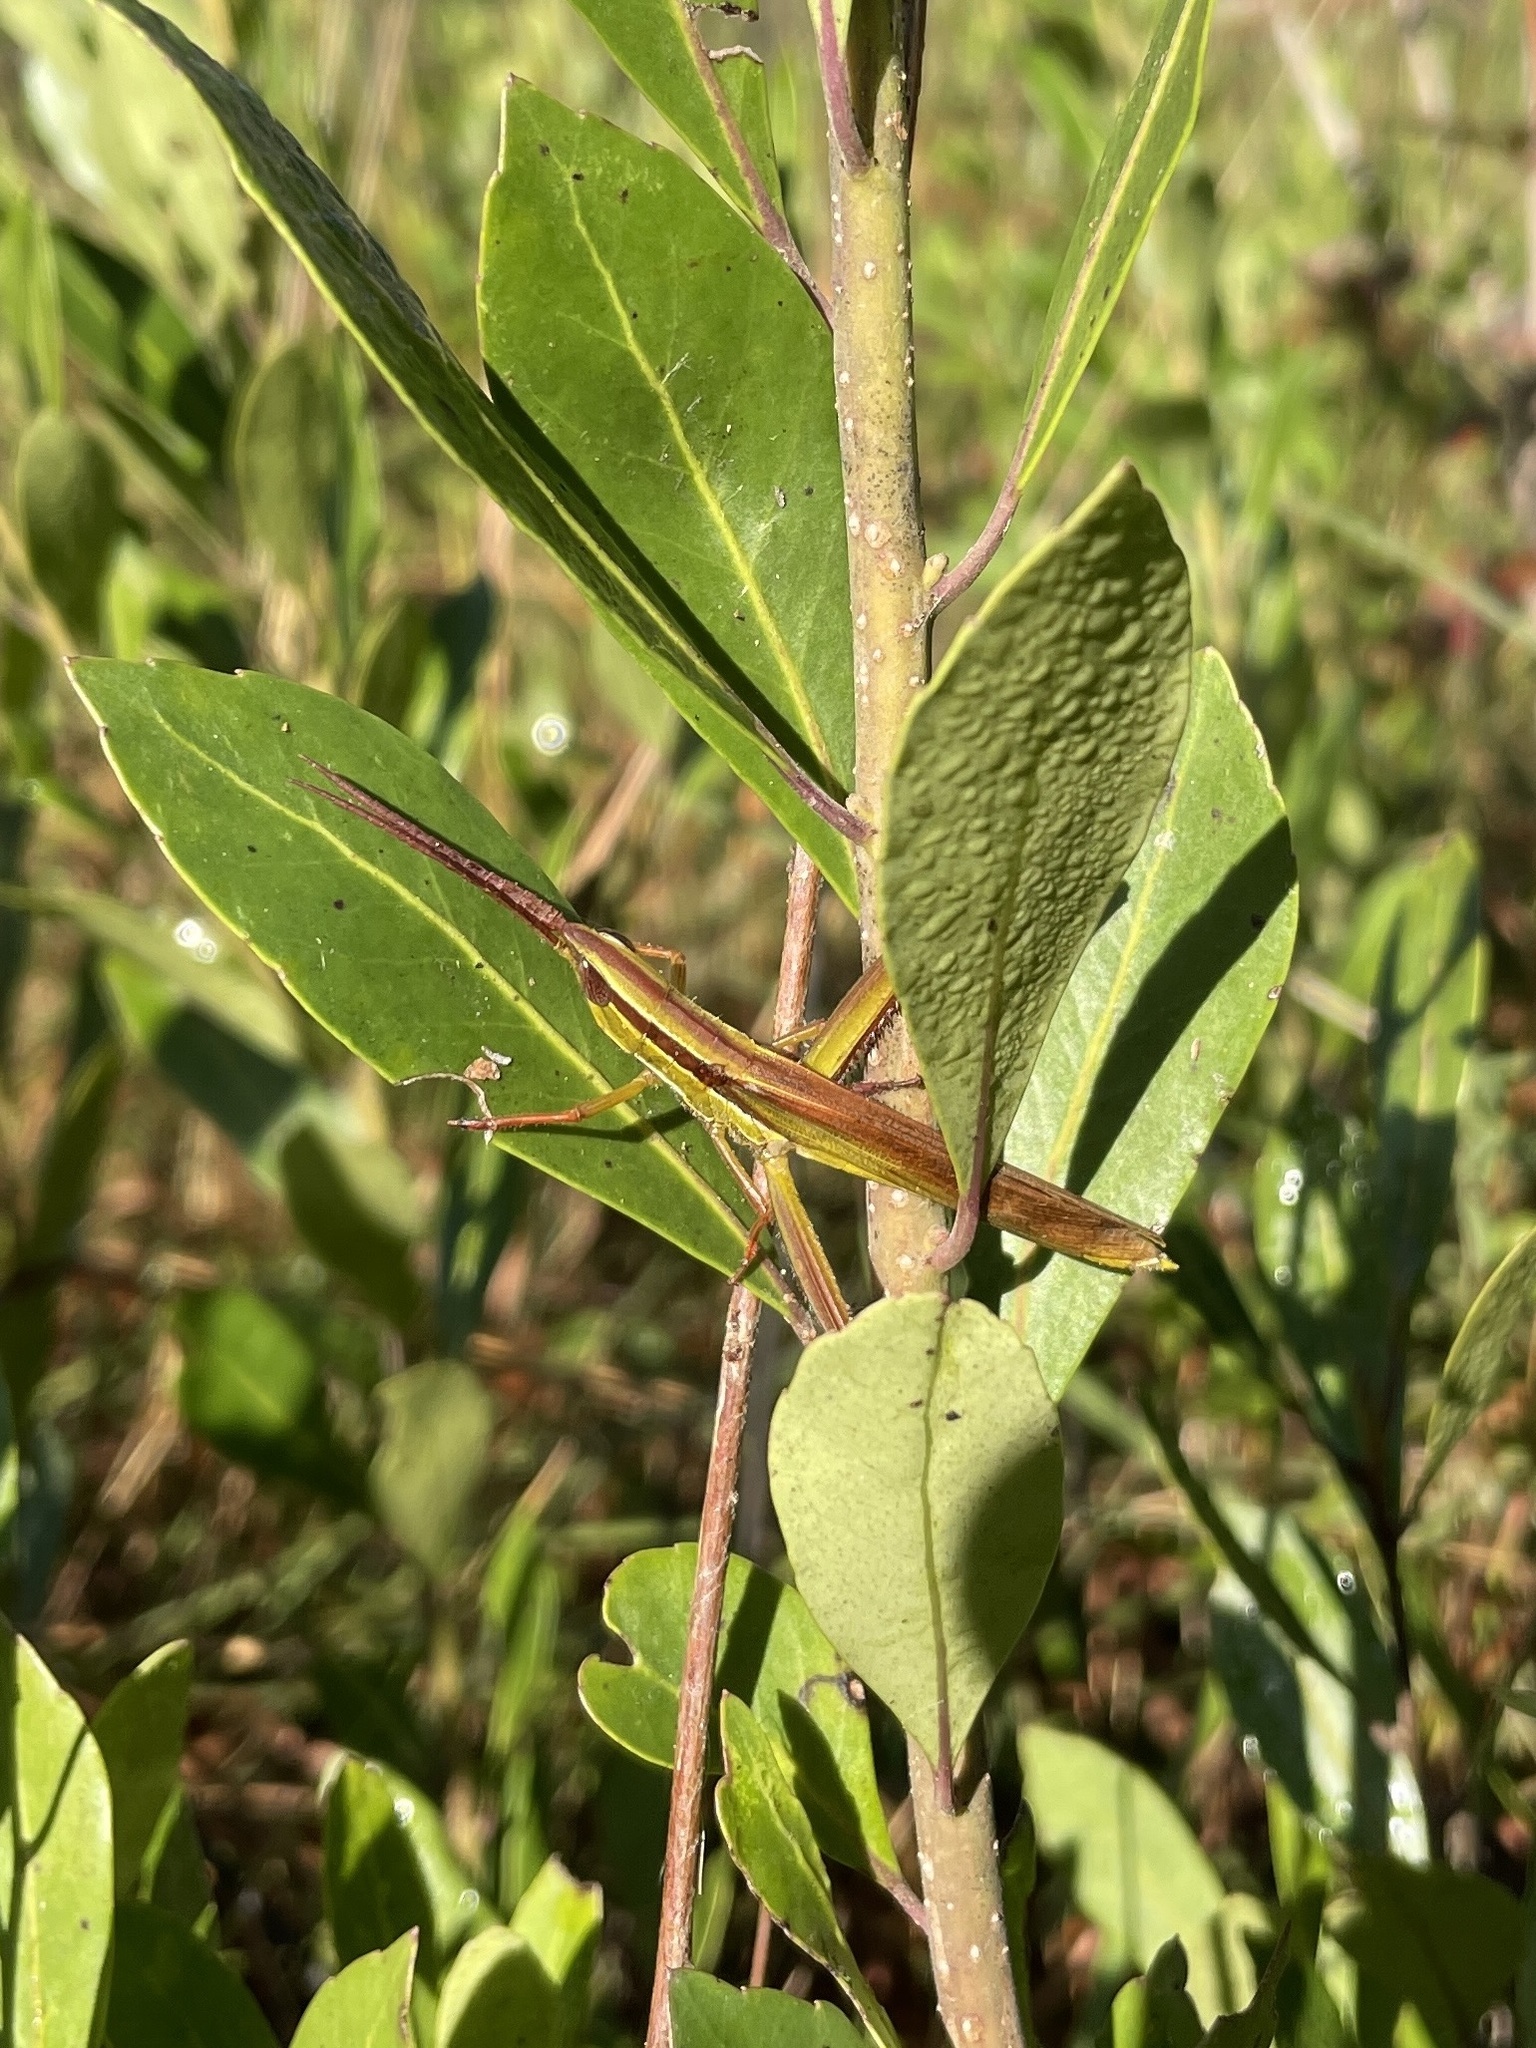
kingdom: Animalia
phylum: Arthropoda
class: Insecta
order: Orthoptera
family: Acrididae
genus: Mermiria
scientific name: Mermiria picta
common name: Lively mermiria grasshopper
